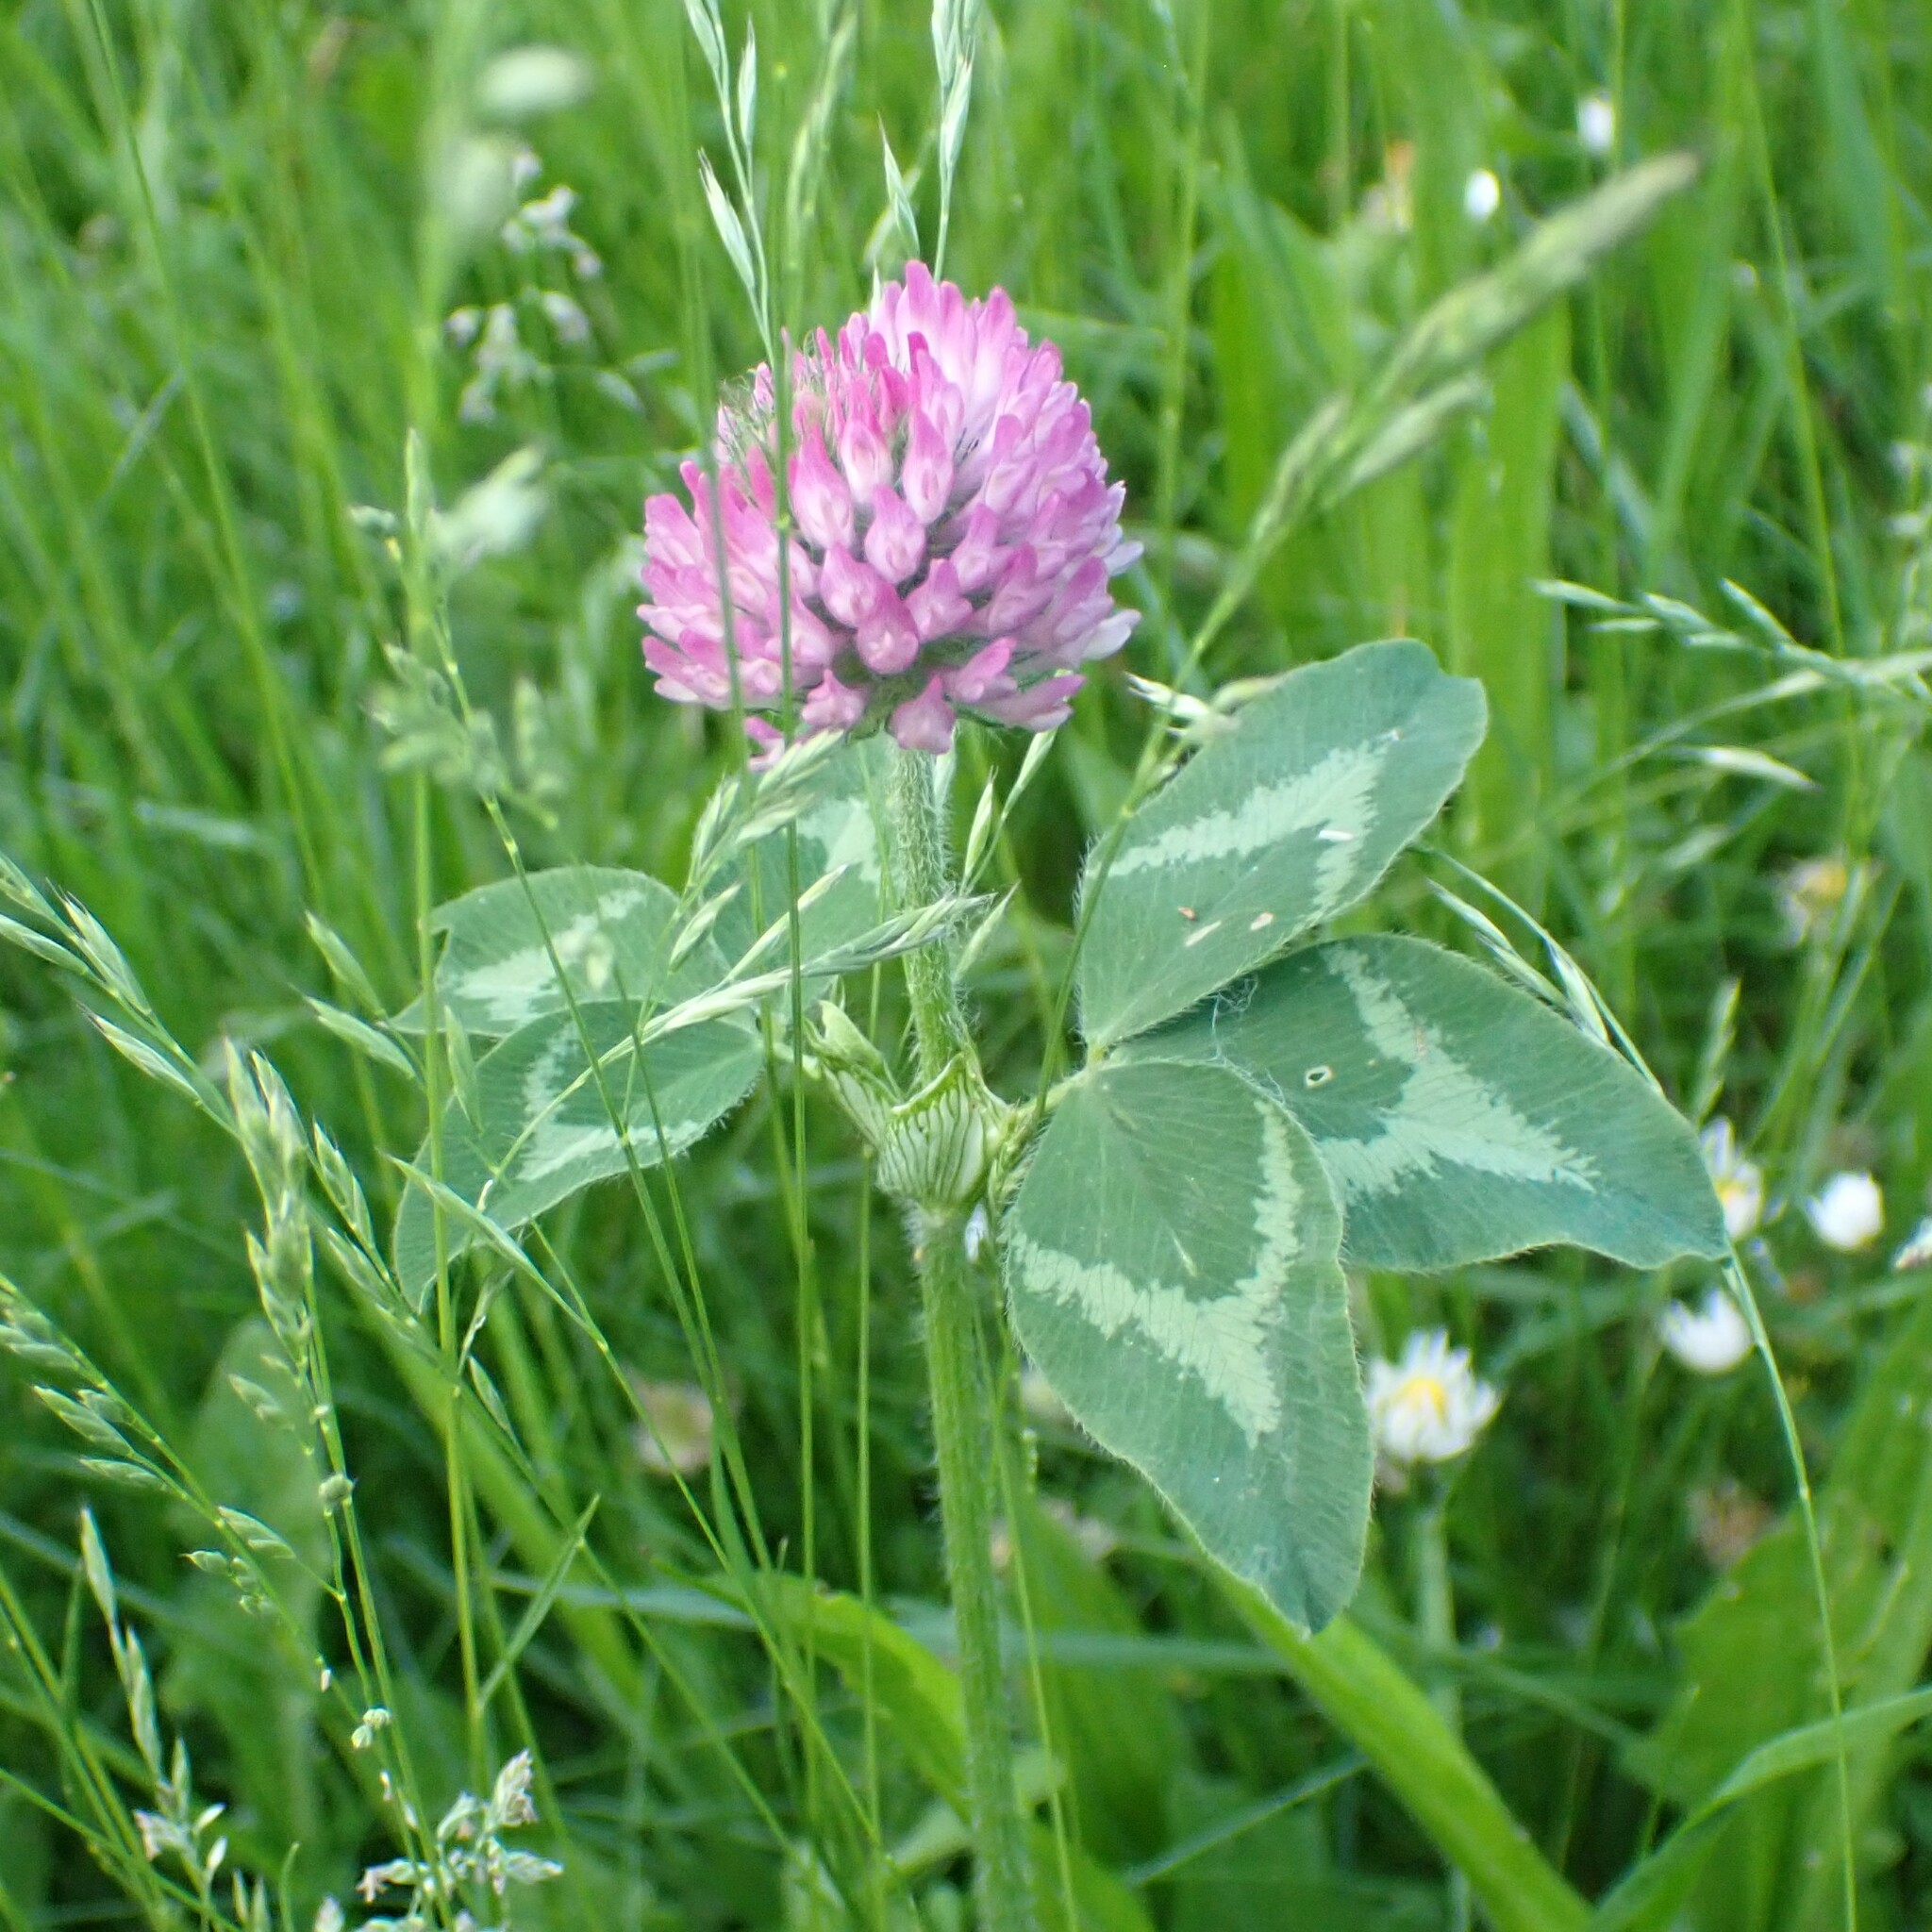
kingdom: Plantae
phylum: Tracheophyta
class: Magnoliopsida
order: Fabales
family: Fabaceae
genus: Trifolium
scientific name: Trifolium pratense
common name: Red clover
